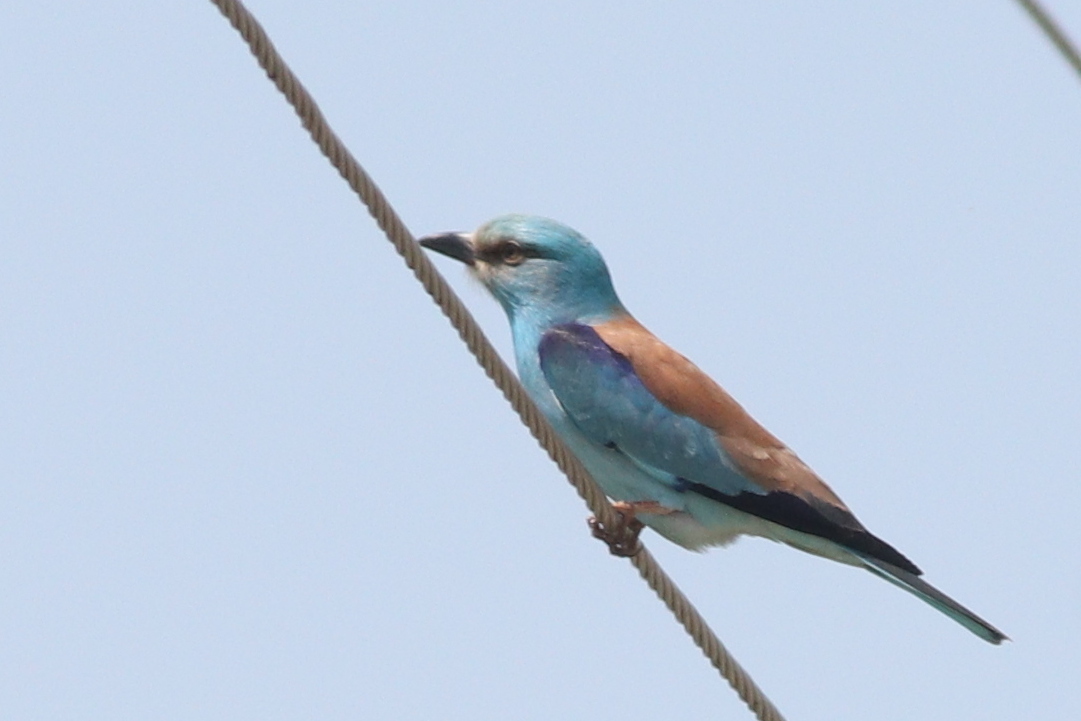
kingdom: Animalia
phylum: Chordata
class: Aves
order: Coraciiformes
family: Coraciidae
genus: Coracias
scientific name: Coracias garrulus
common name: European roller
